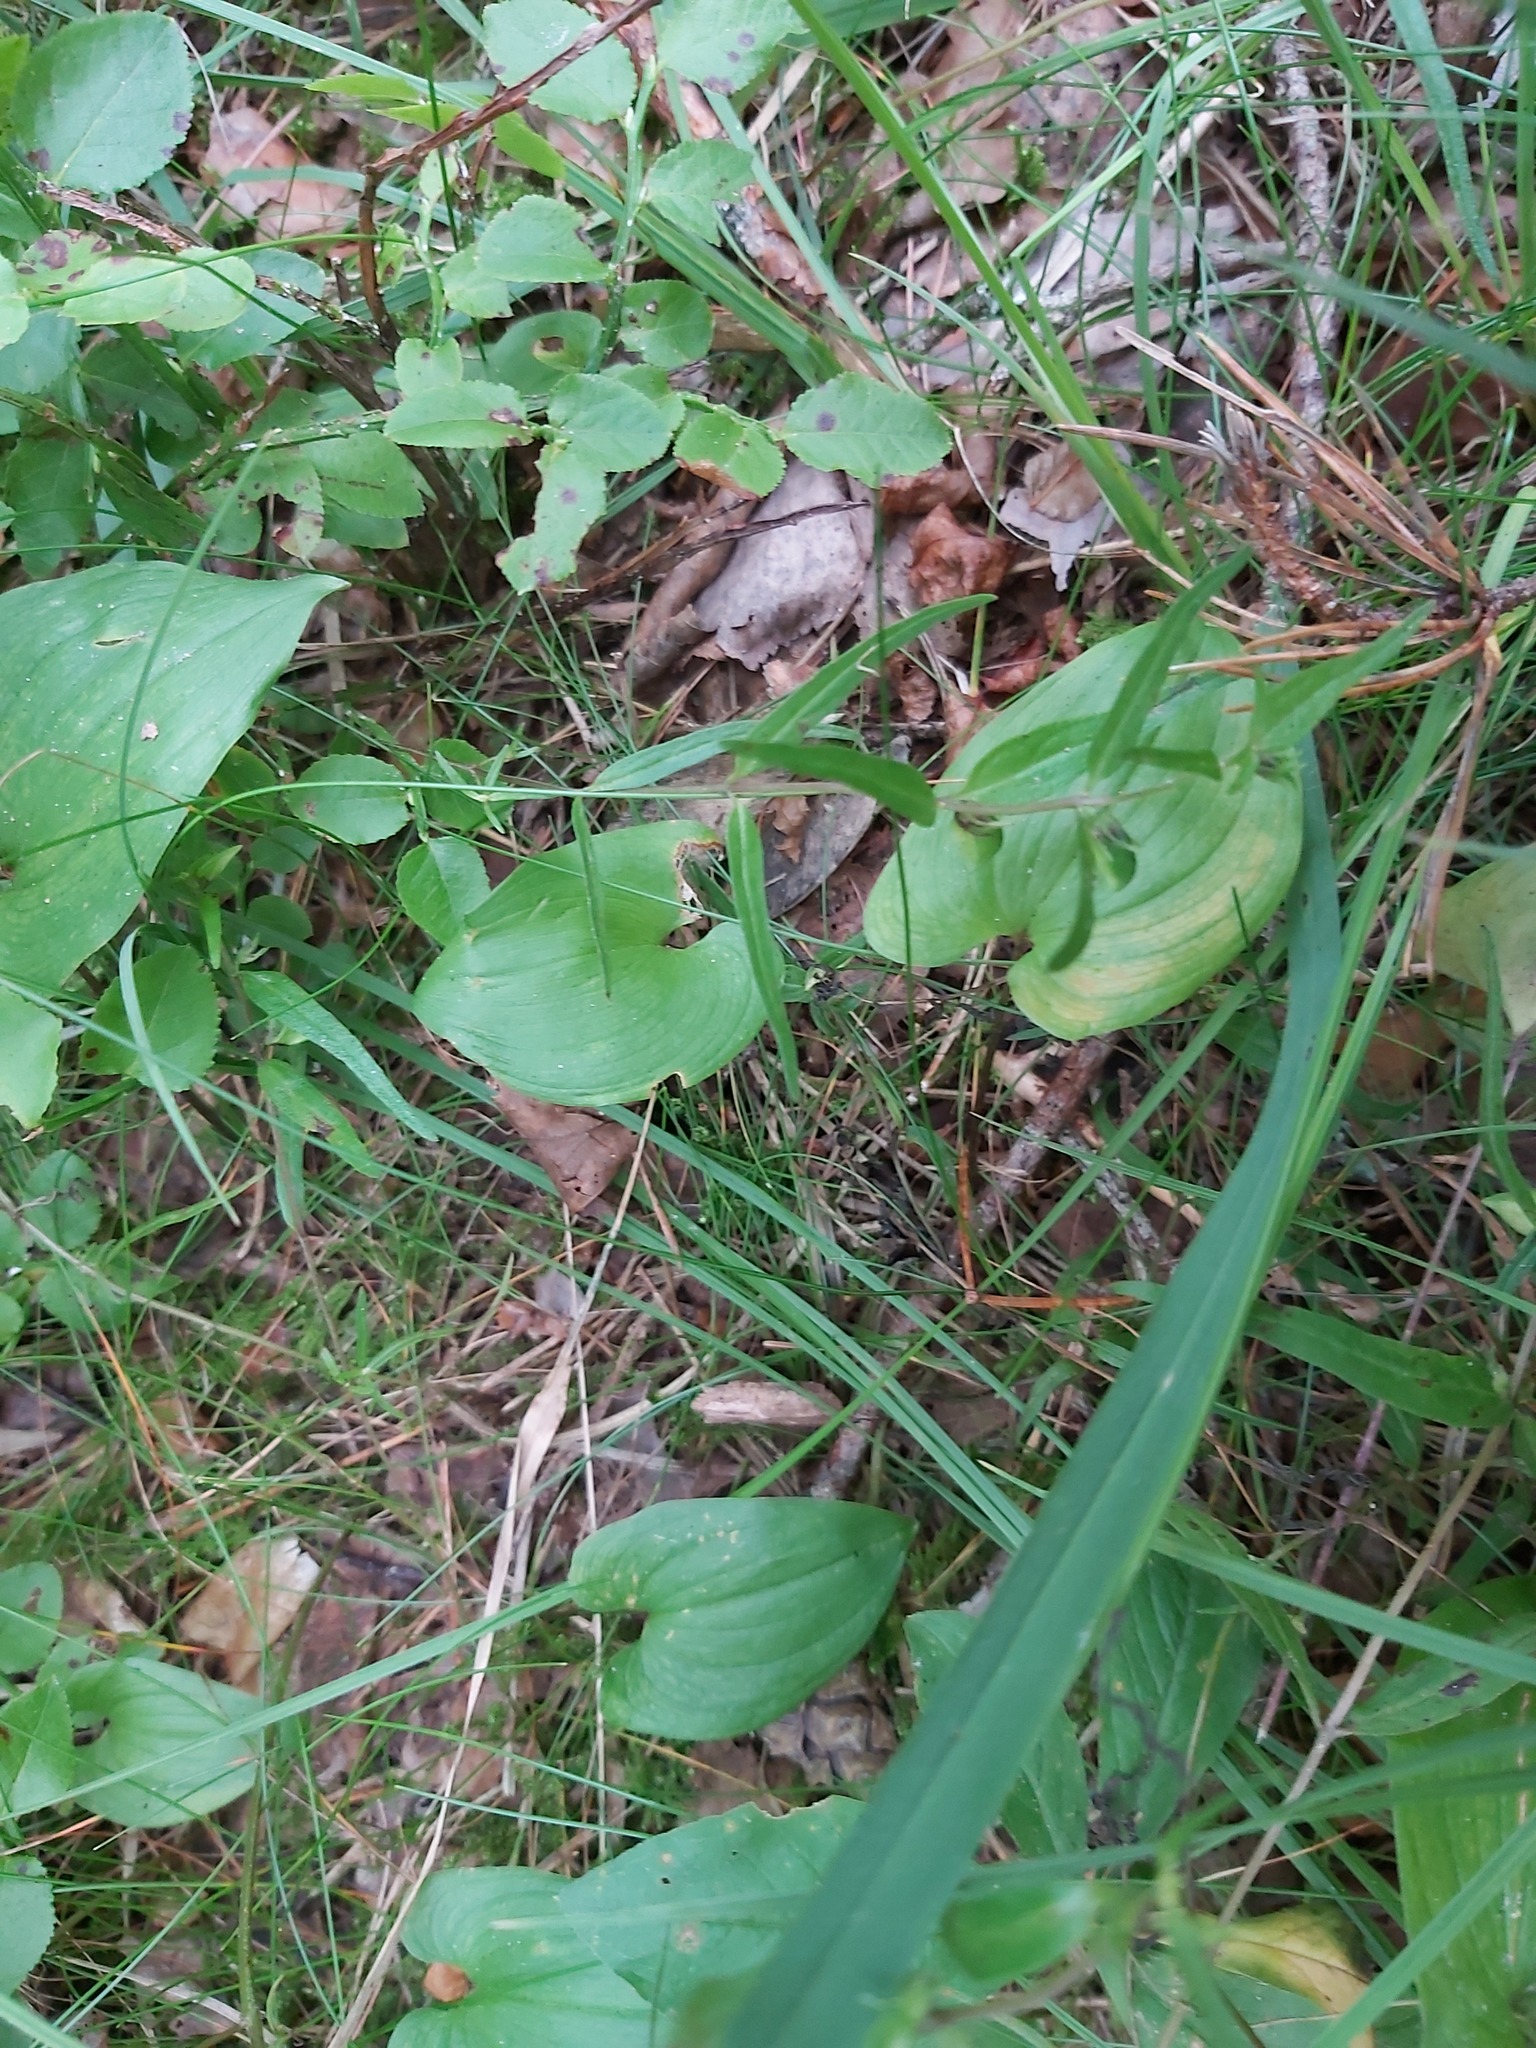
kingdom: Plantae
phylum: Tracheophyta
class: Liliopsida
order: Asparagales
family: Asparagaceae
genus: Maianthemum
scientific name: Maianthemum bifolium
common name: May lily
